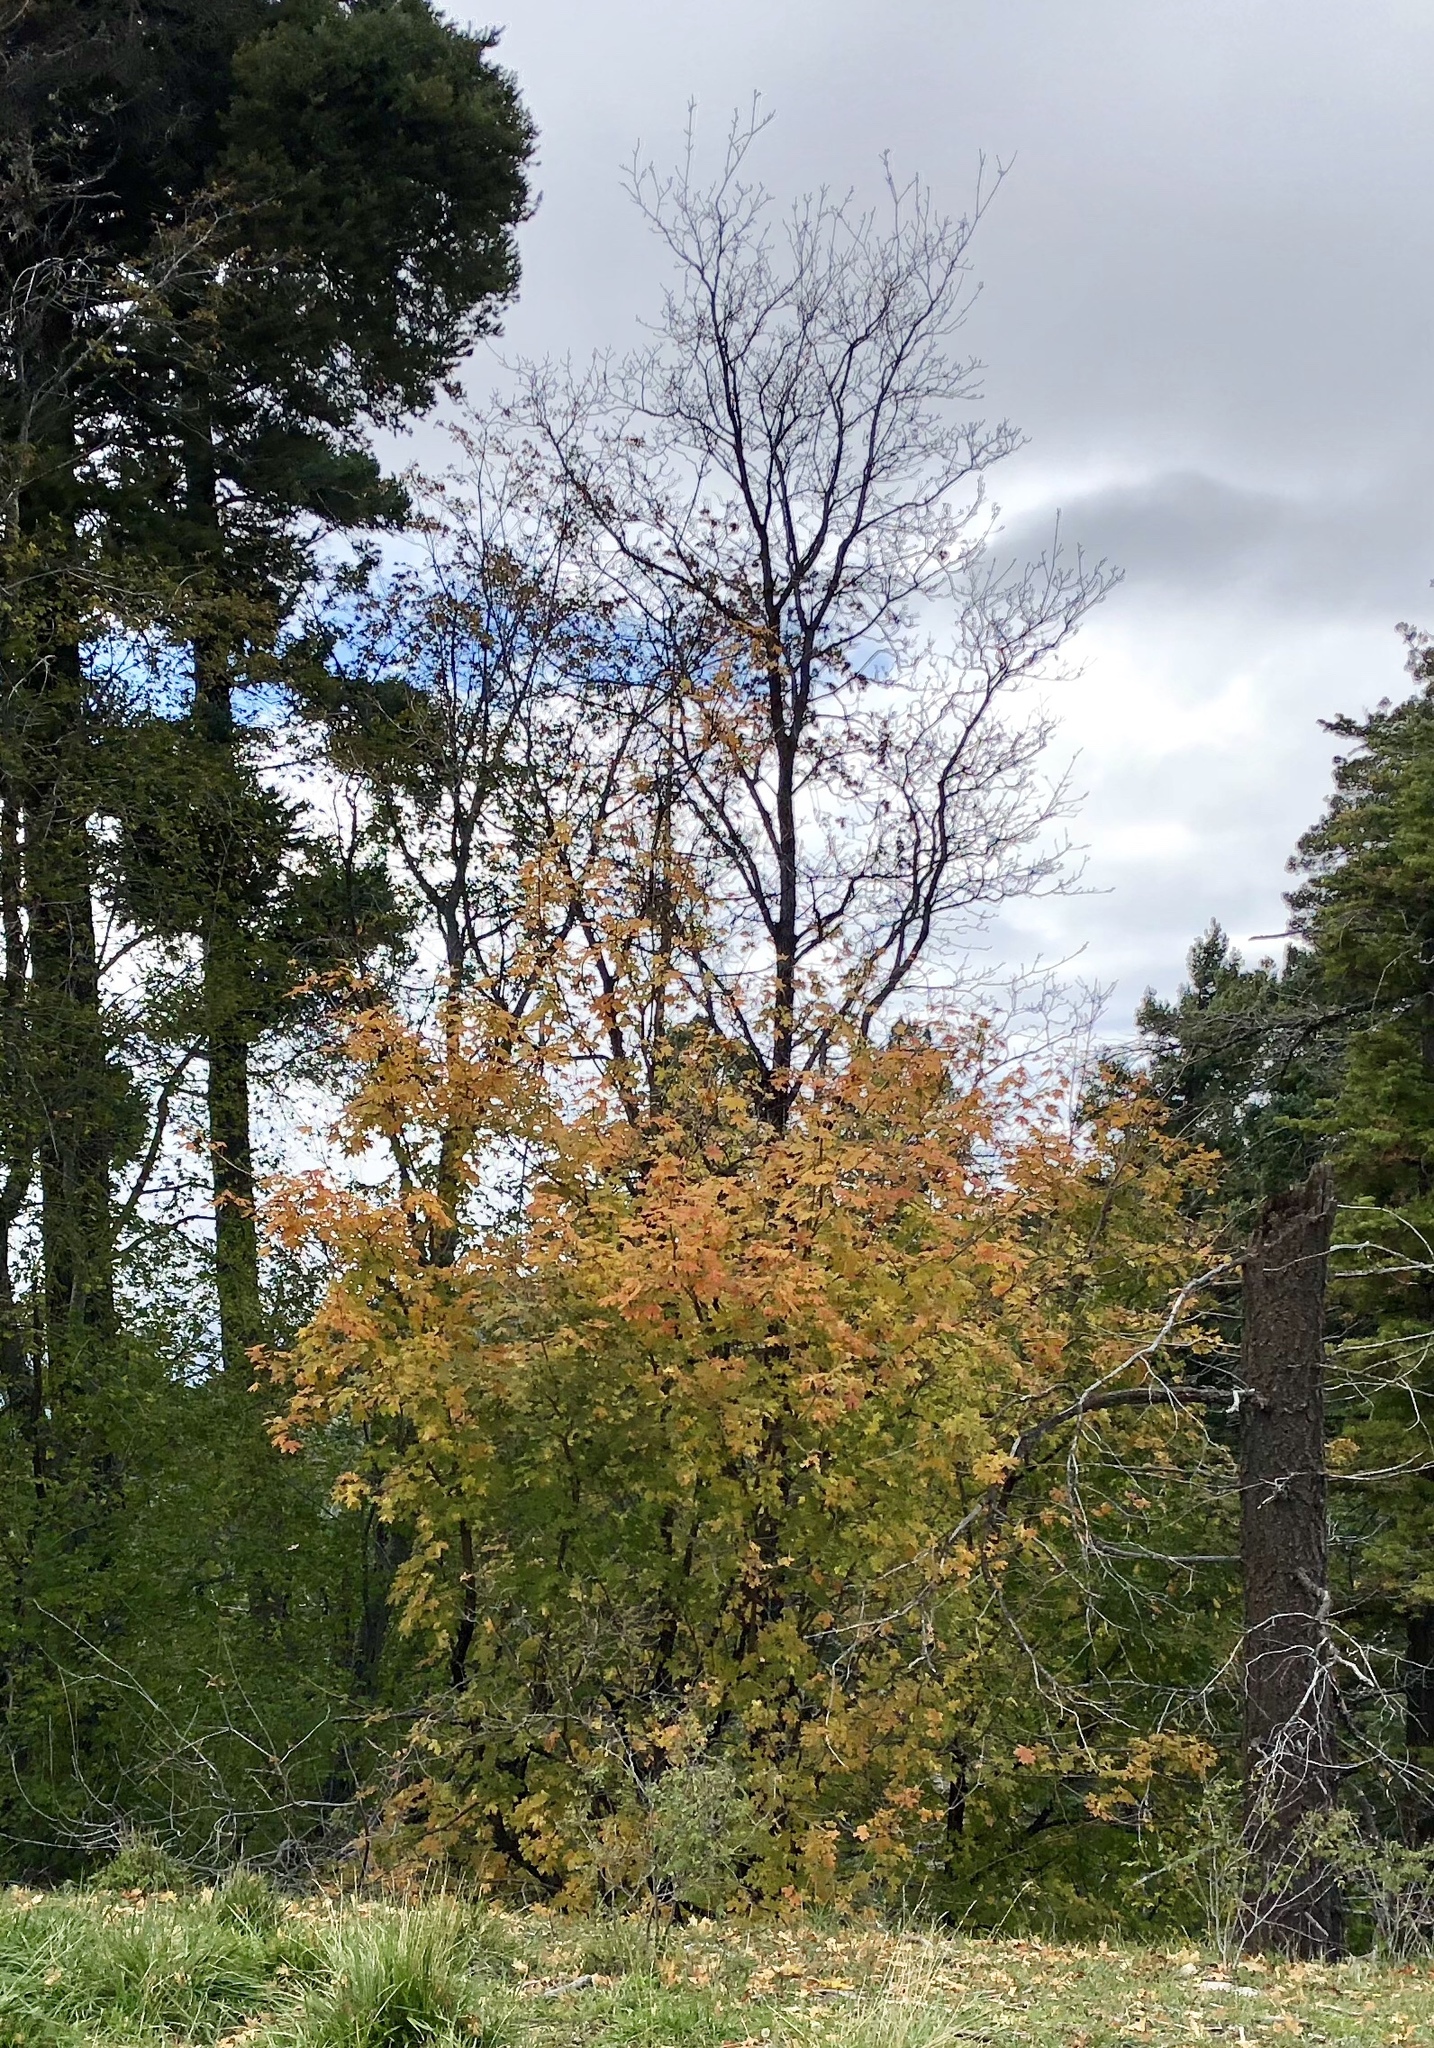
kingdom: Plantae
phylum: Tracheophyta
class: Magnoliopsida
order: Sapindales
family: Sapindaceae
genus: Acer
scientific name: Acer grandidentatum
